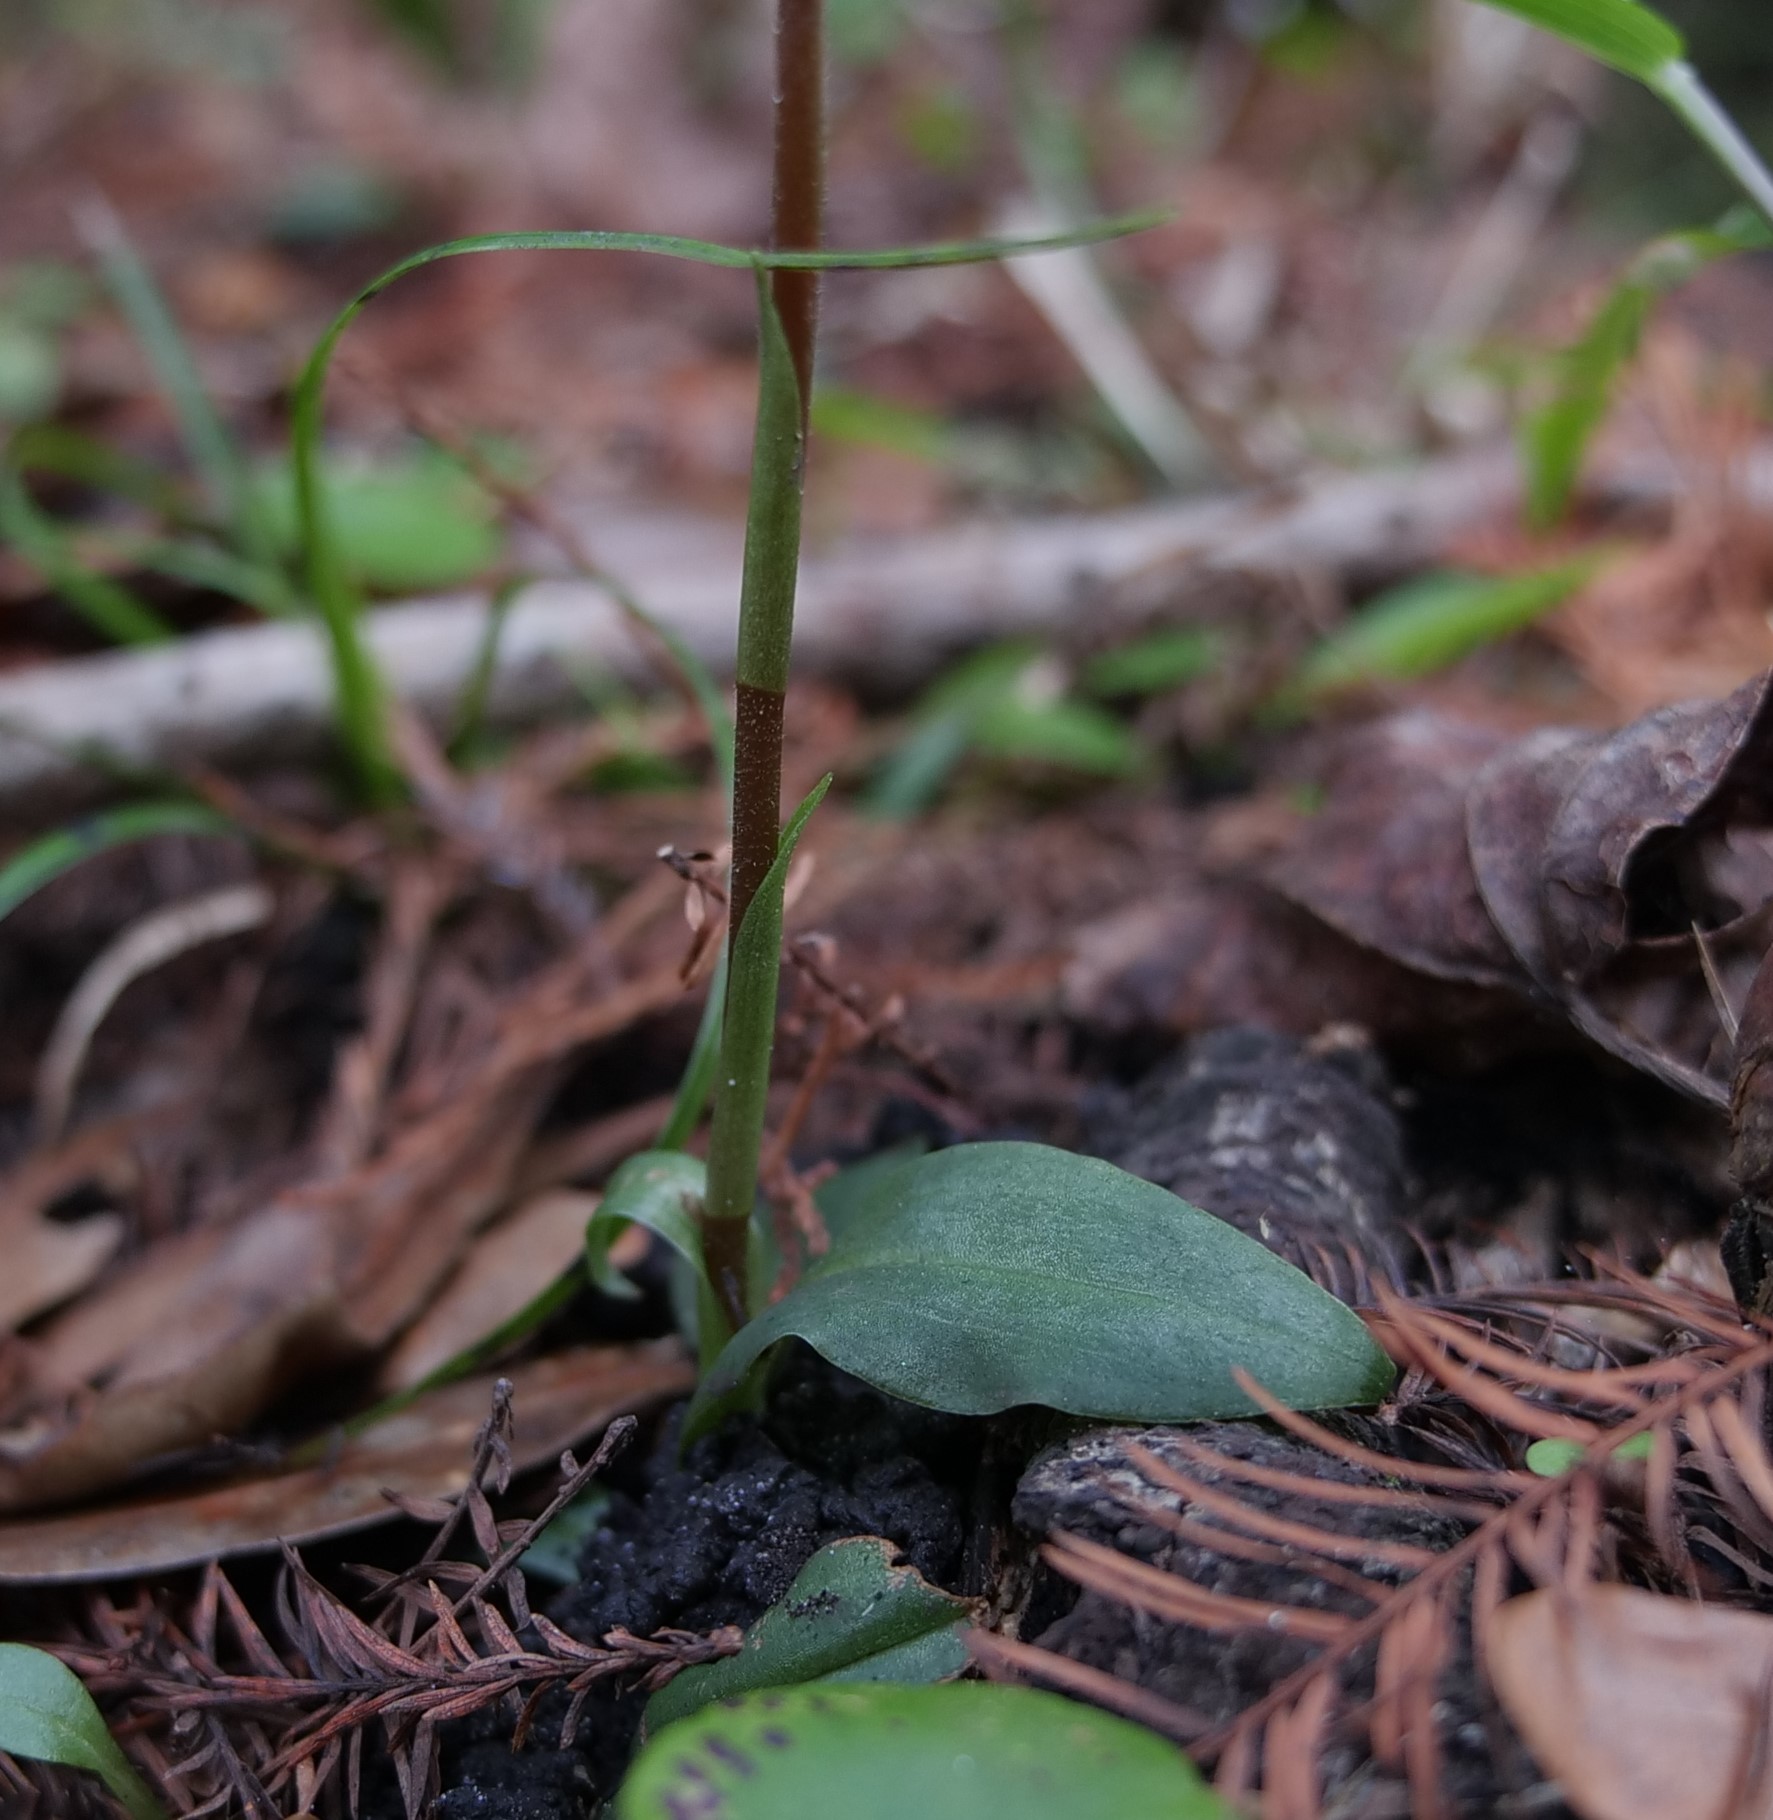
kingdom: Plantae
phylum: Tracheophyta
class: Liliopsida
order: Asparagales
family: Orchidaceae
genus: Ponthieva
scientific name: Ponthieva racemosa
